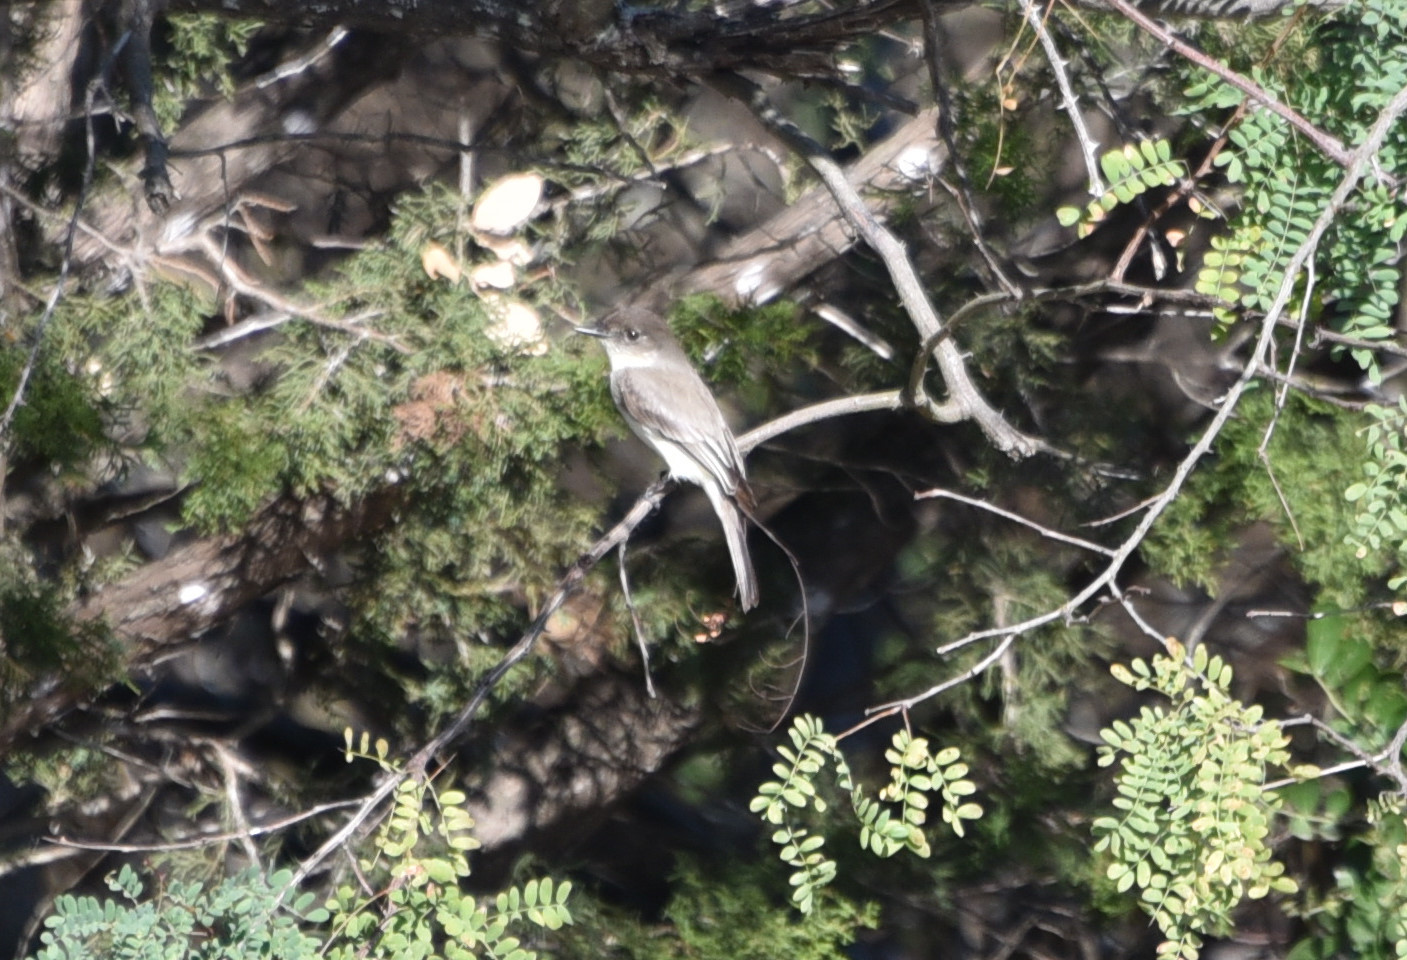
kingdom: Animalia
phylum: Chordata
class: Aves
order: Passeriformes
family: Tyrannidae
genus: Sayornis
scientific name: Sayornis phoebe
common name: Eastern phoebe
